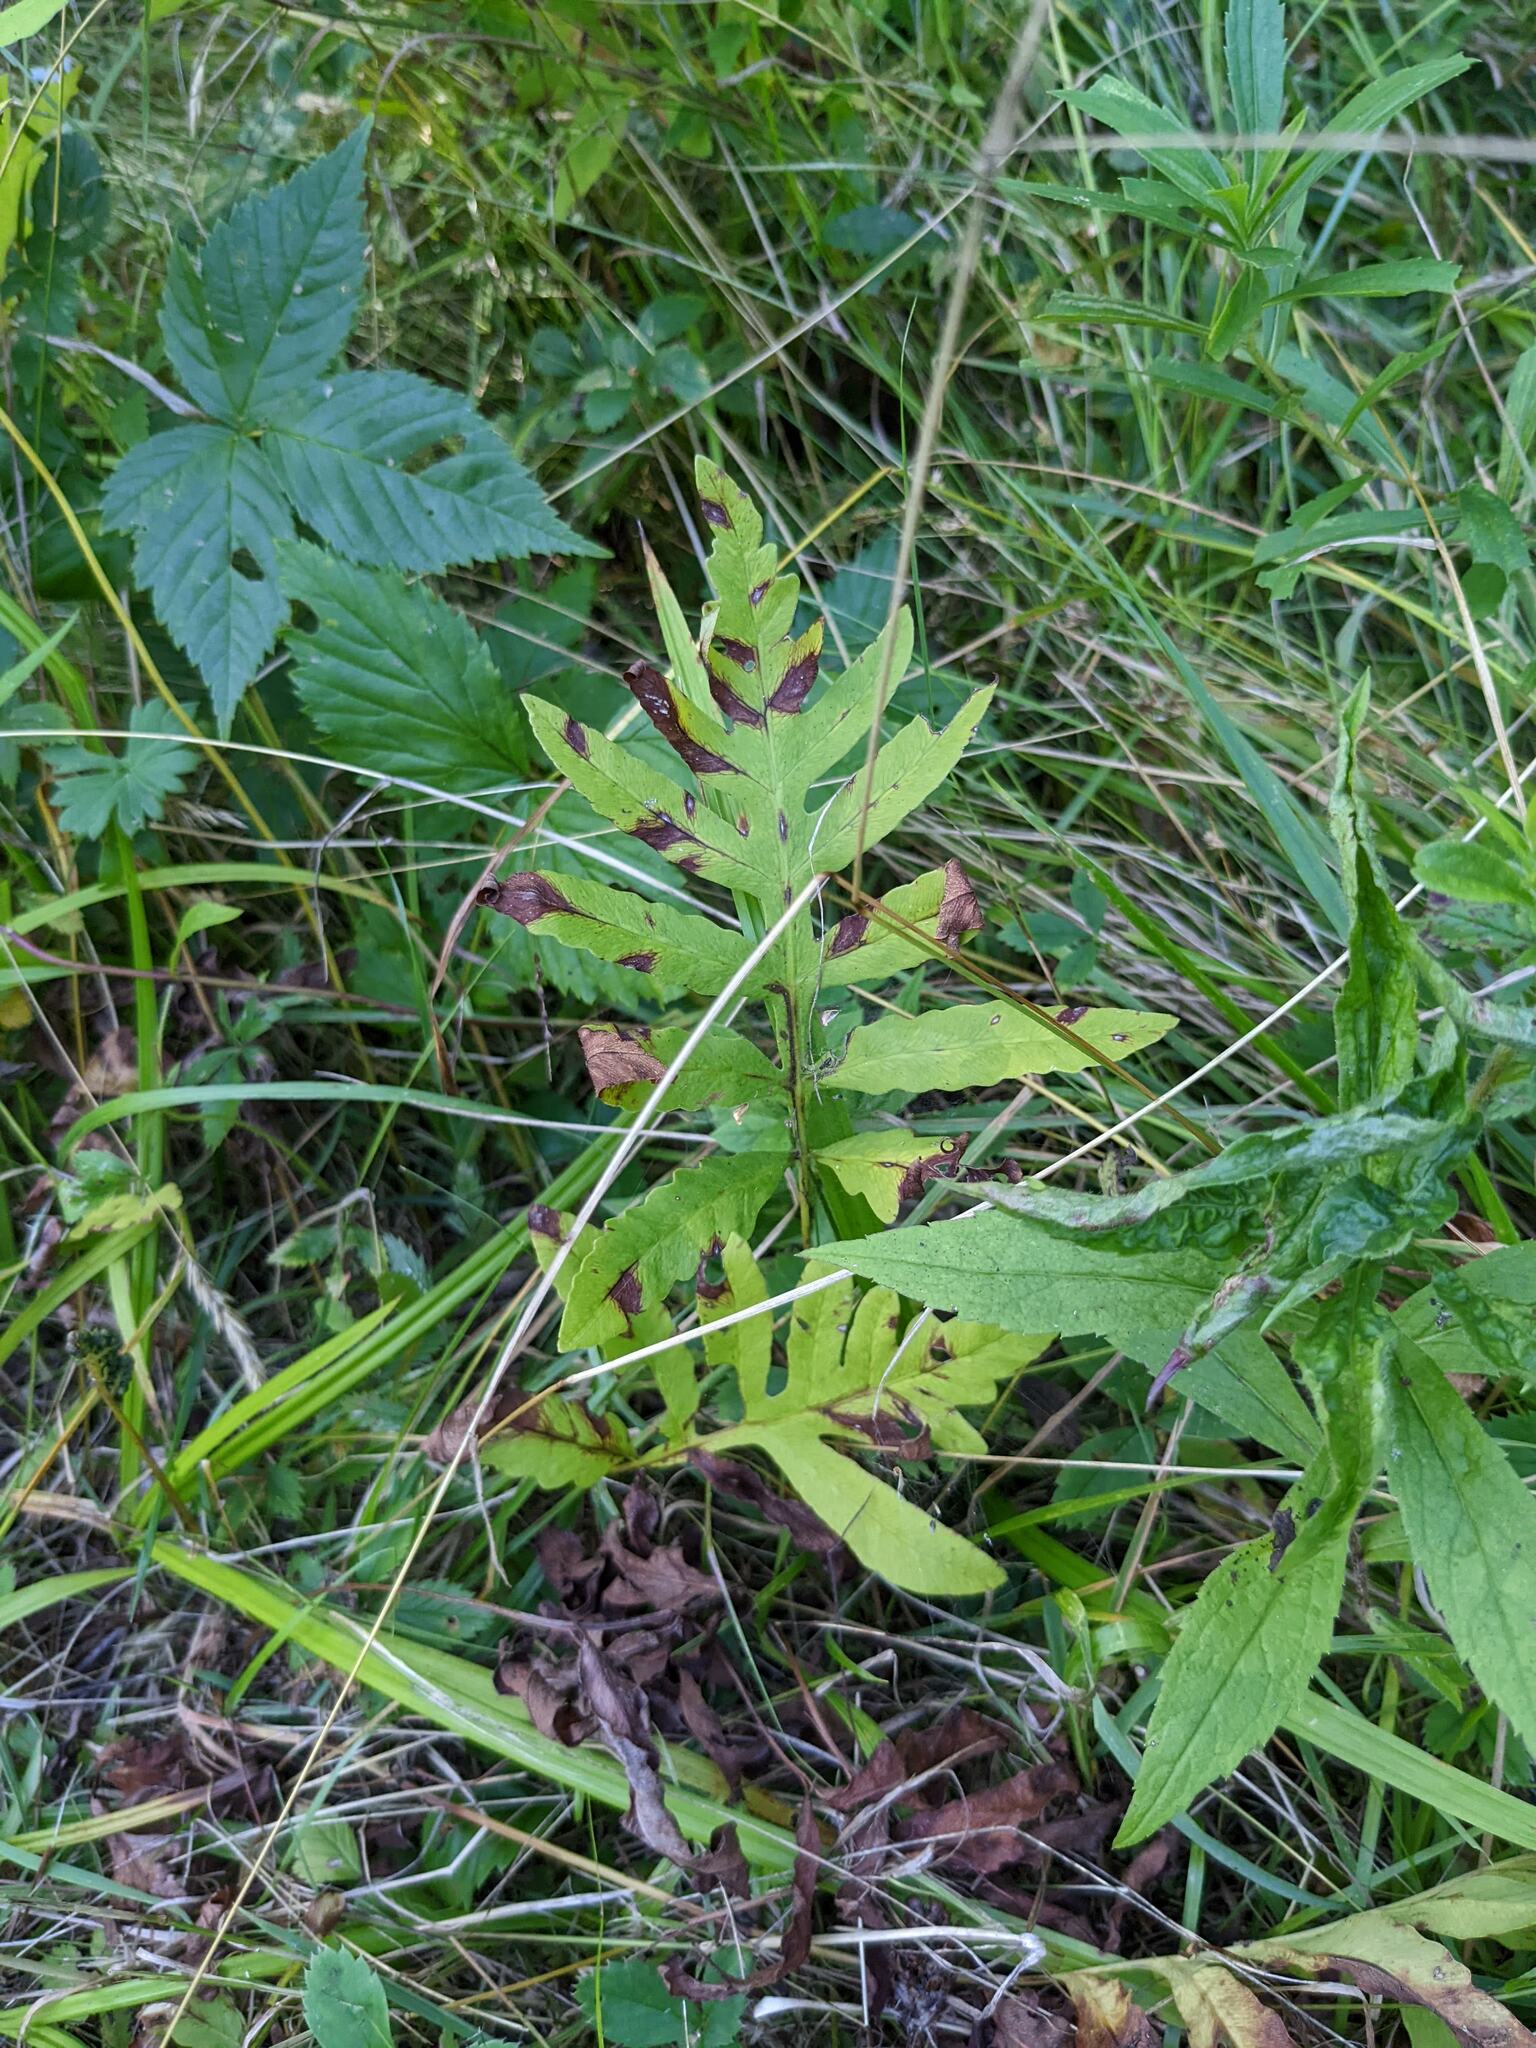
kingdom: Plantae
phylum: Tracheophyta
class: Polypodiopsida
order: Polypodiales
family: Onocleaceae
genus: Onoclea
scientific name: Onoclea sensibilis
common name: Sensitive fern
